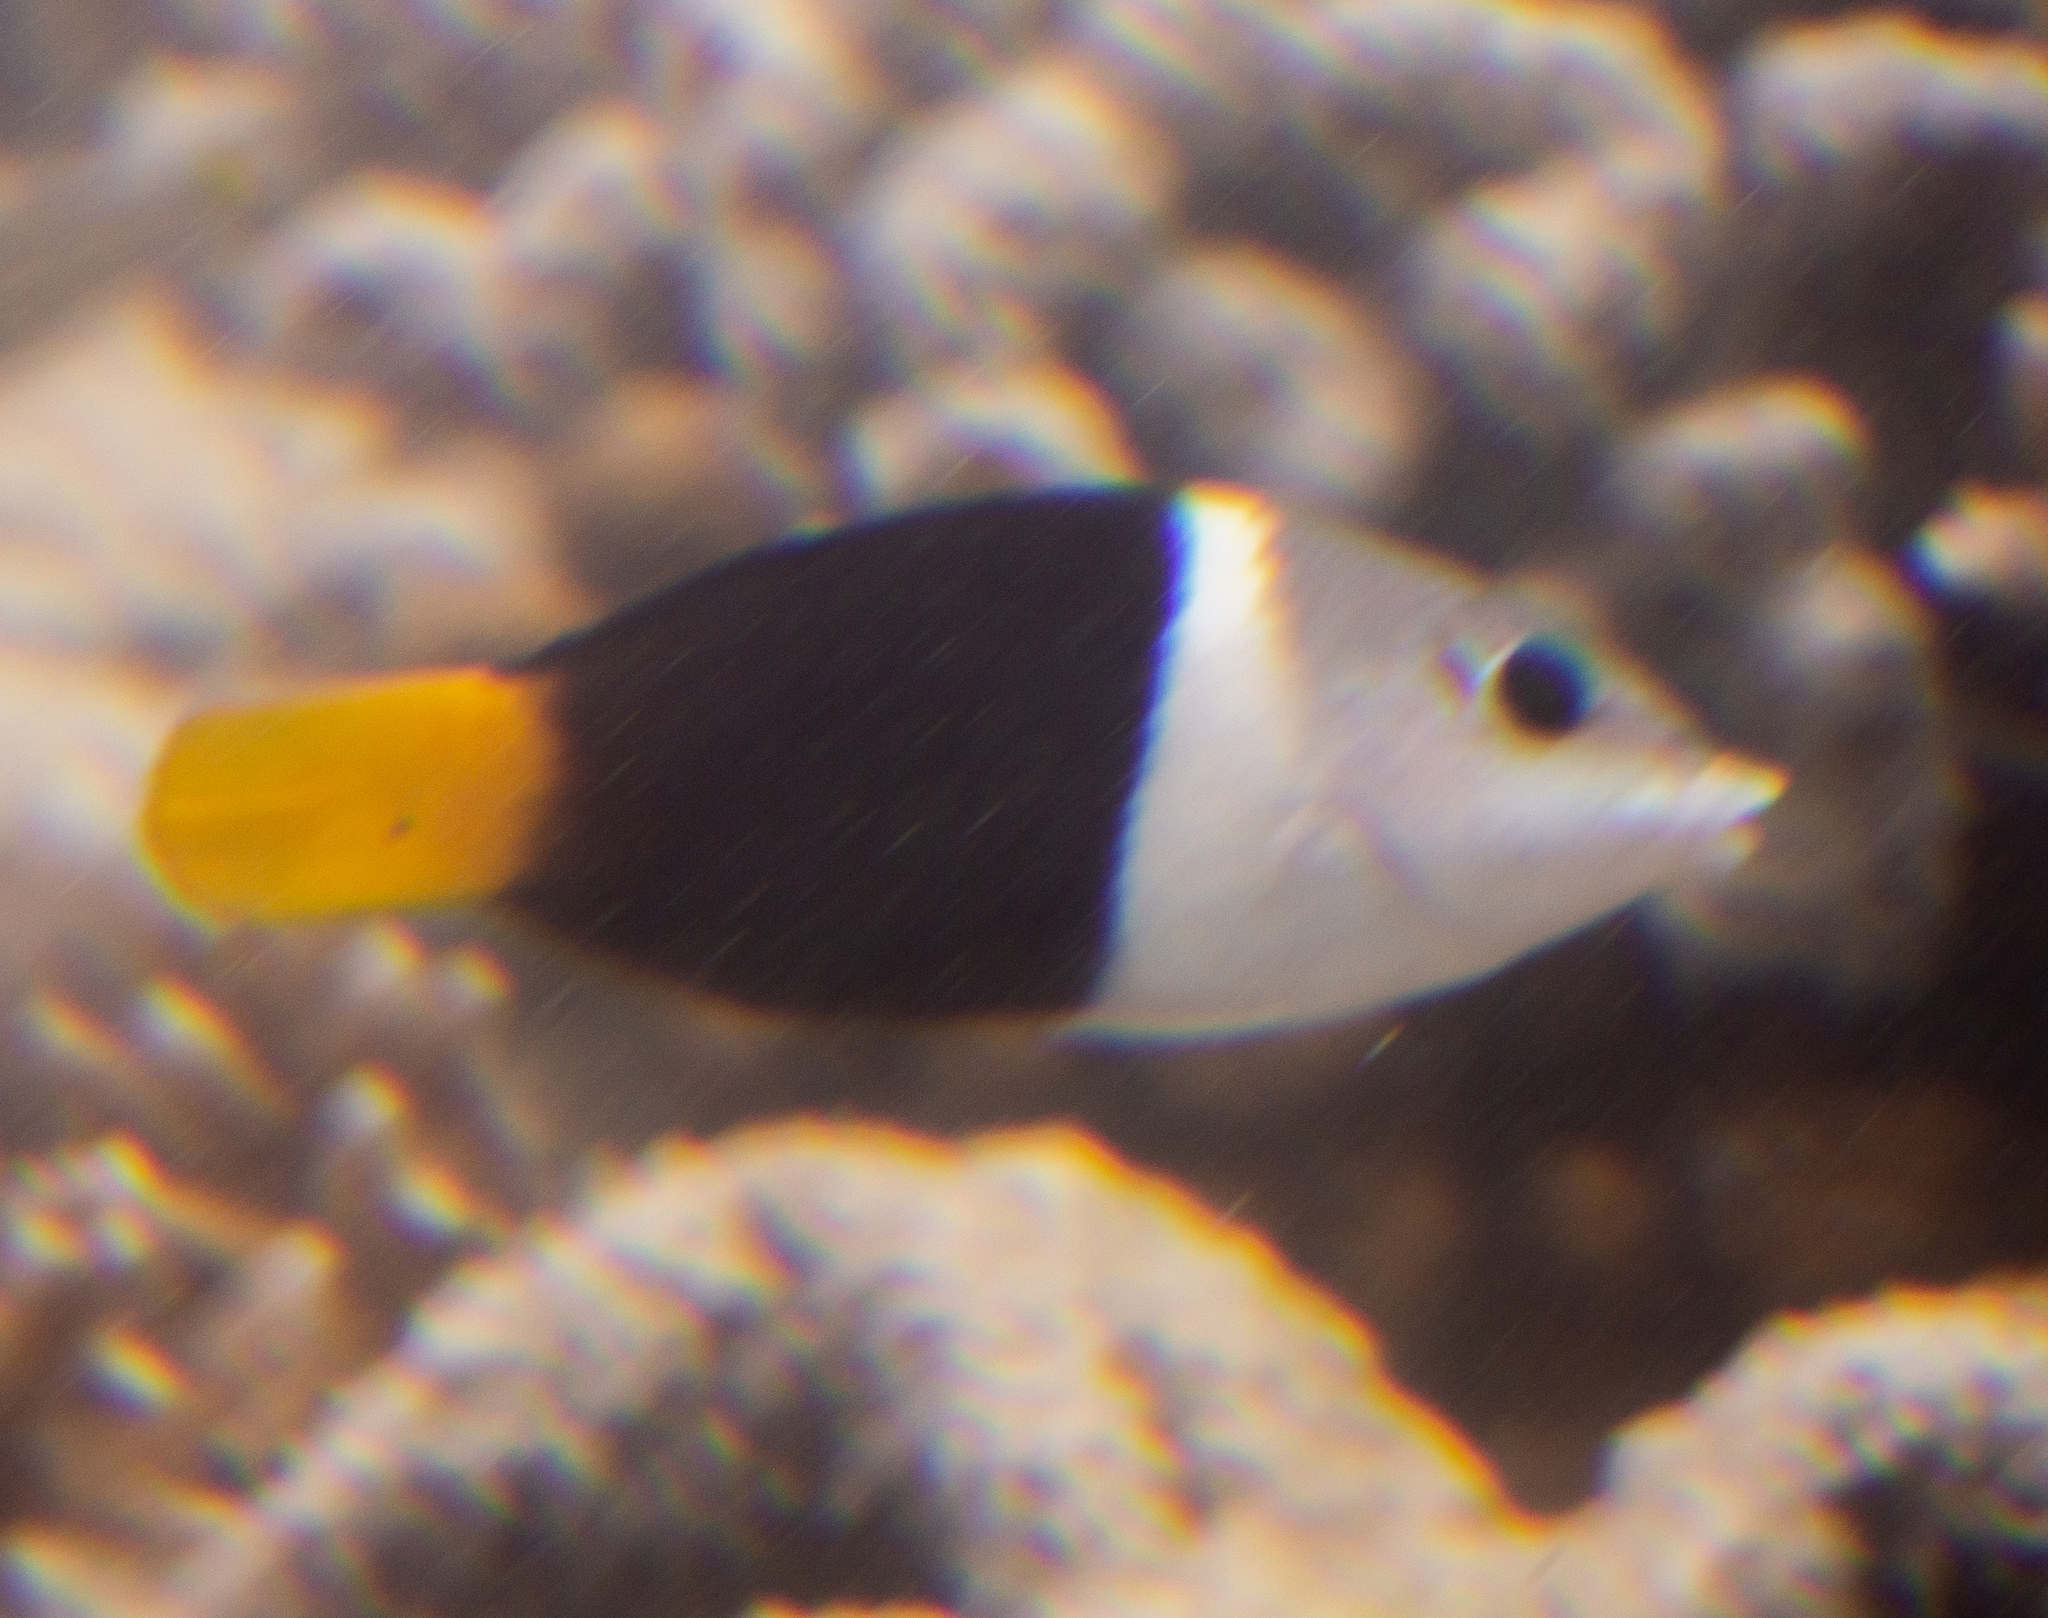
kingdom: Animalia
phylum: Chordata
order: Perciformes
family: Labridae
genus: Hemigymnus
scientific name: Hemigymnus melapterus
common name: Blackeye thicklip
